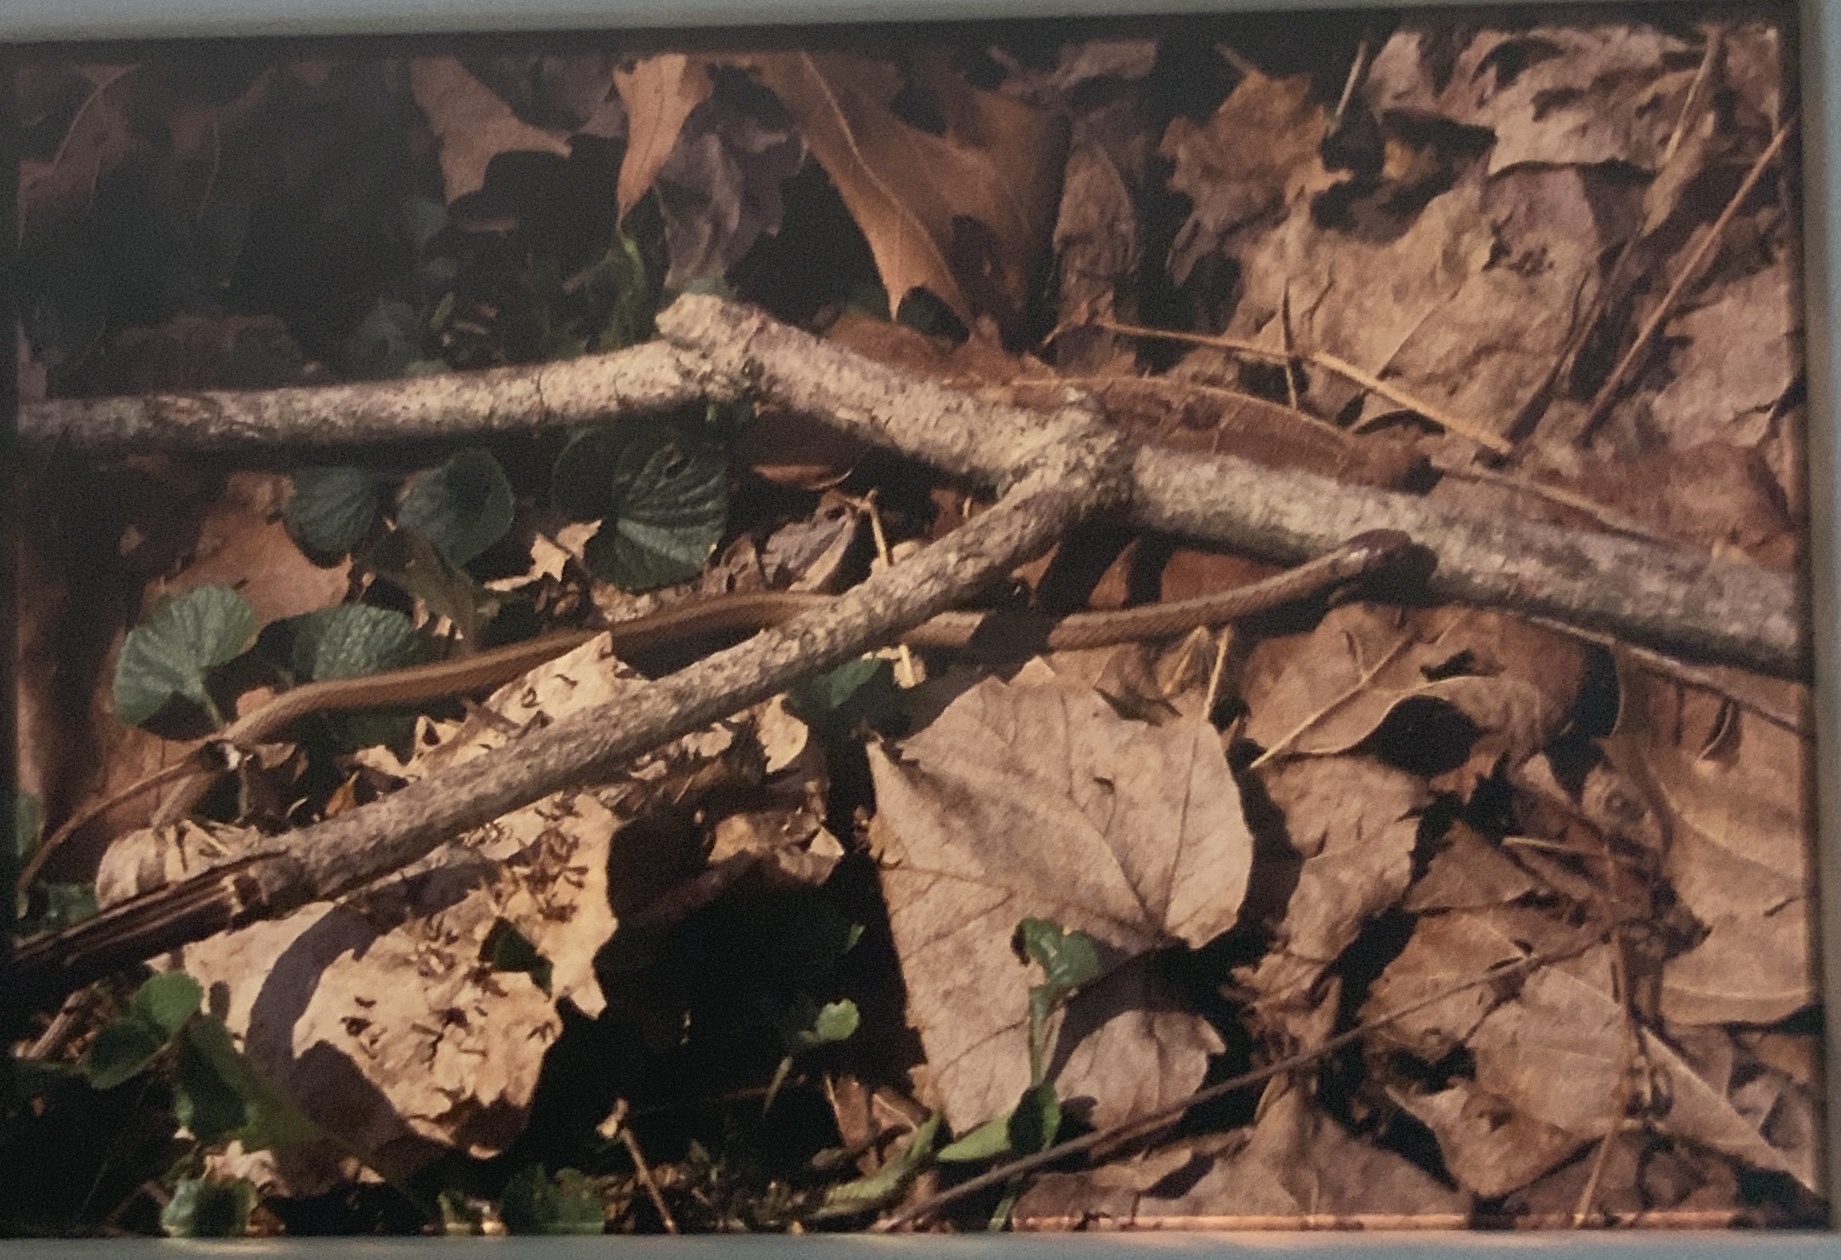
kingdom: Animalia
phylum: Chordata
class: Squamata
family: Colubridae
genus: Storeria
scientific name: Storeria dekayi
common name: (dekay’s) brown snake
